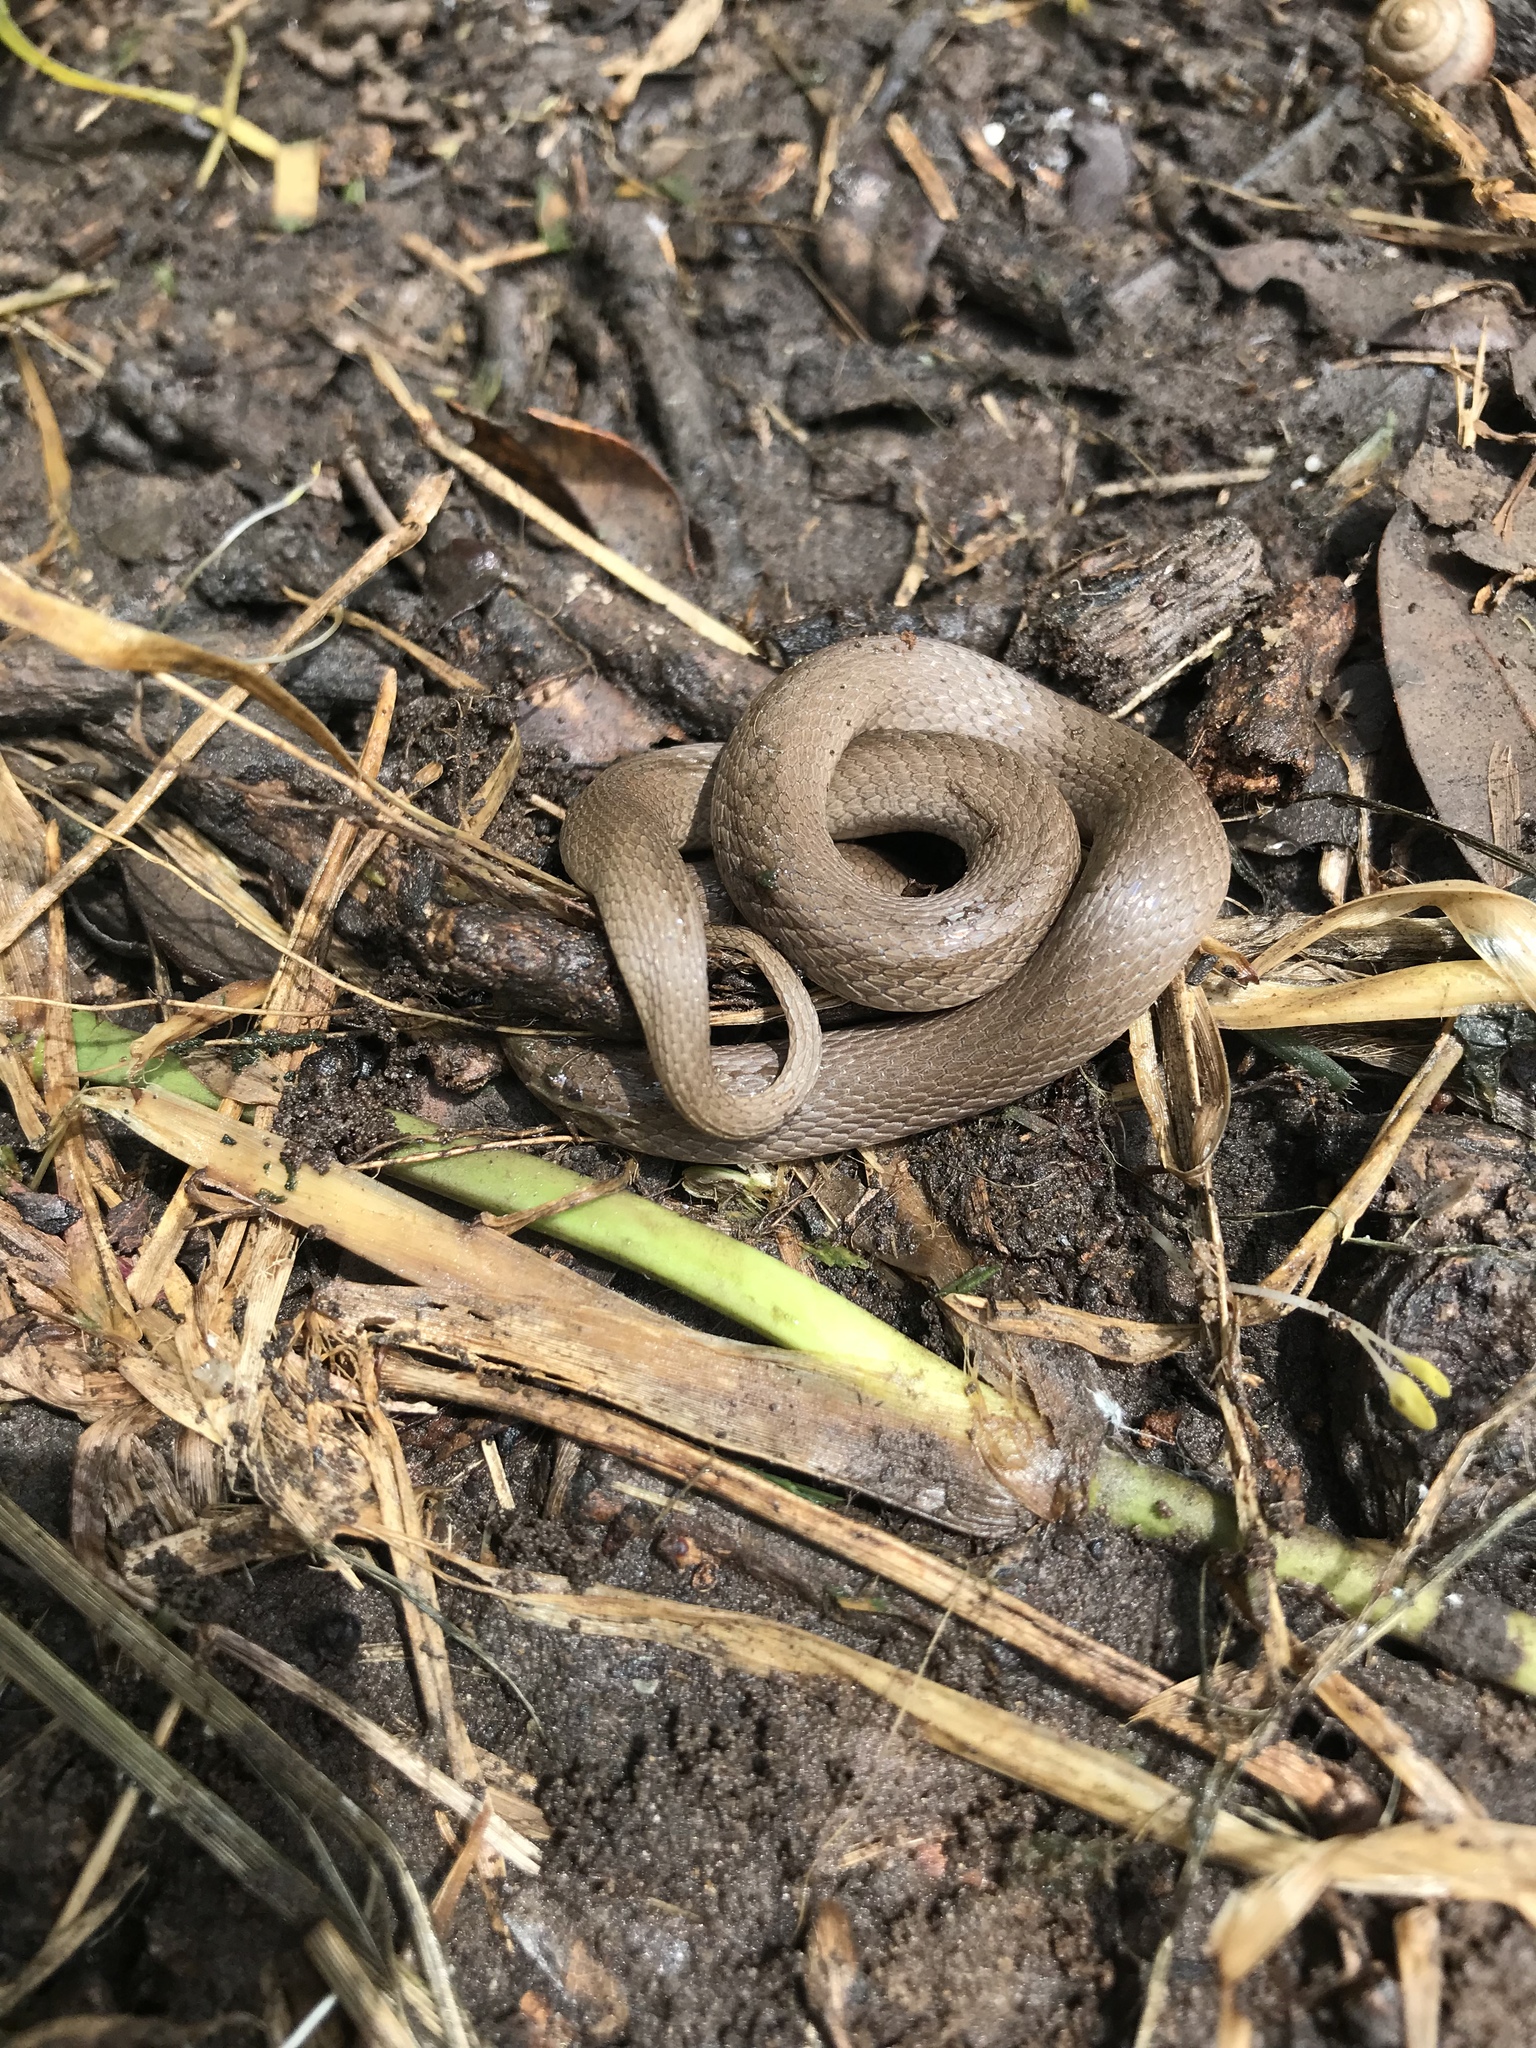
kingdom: Animalia
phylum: Chordata
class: Squamata
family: Colubridae
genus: Haldea
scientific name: Haldea striatula
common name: Rough earth snake
